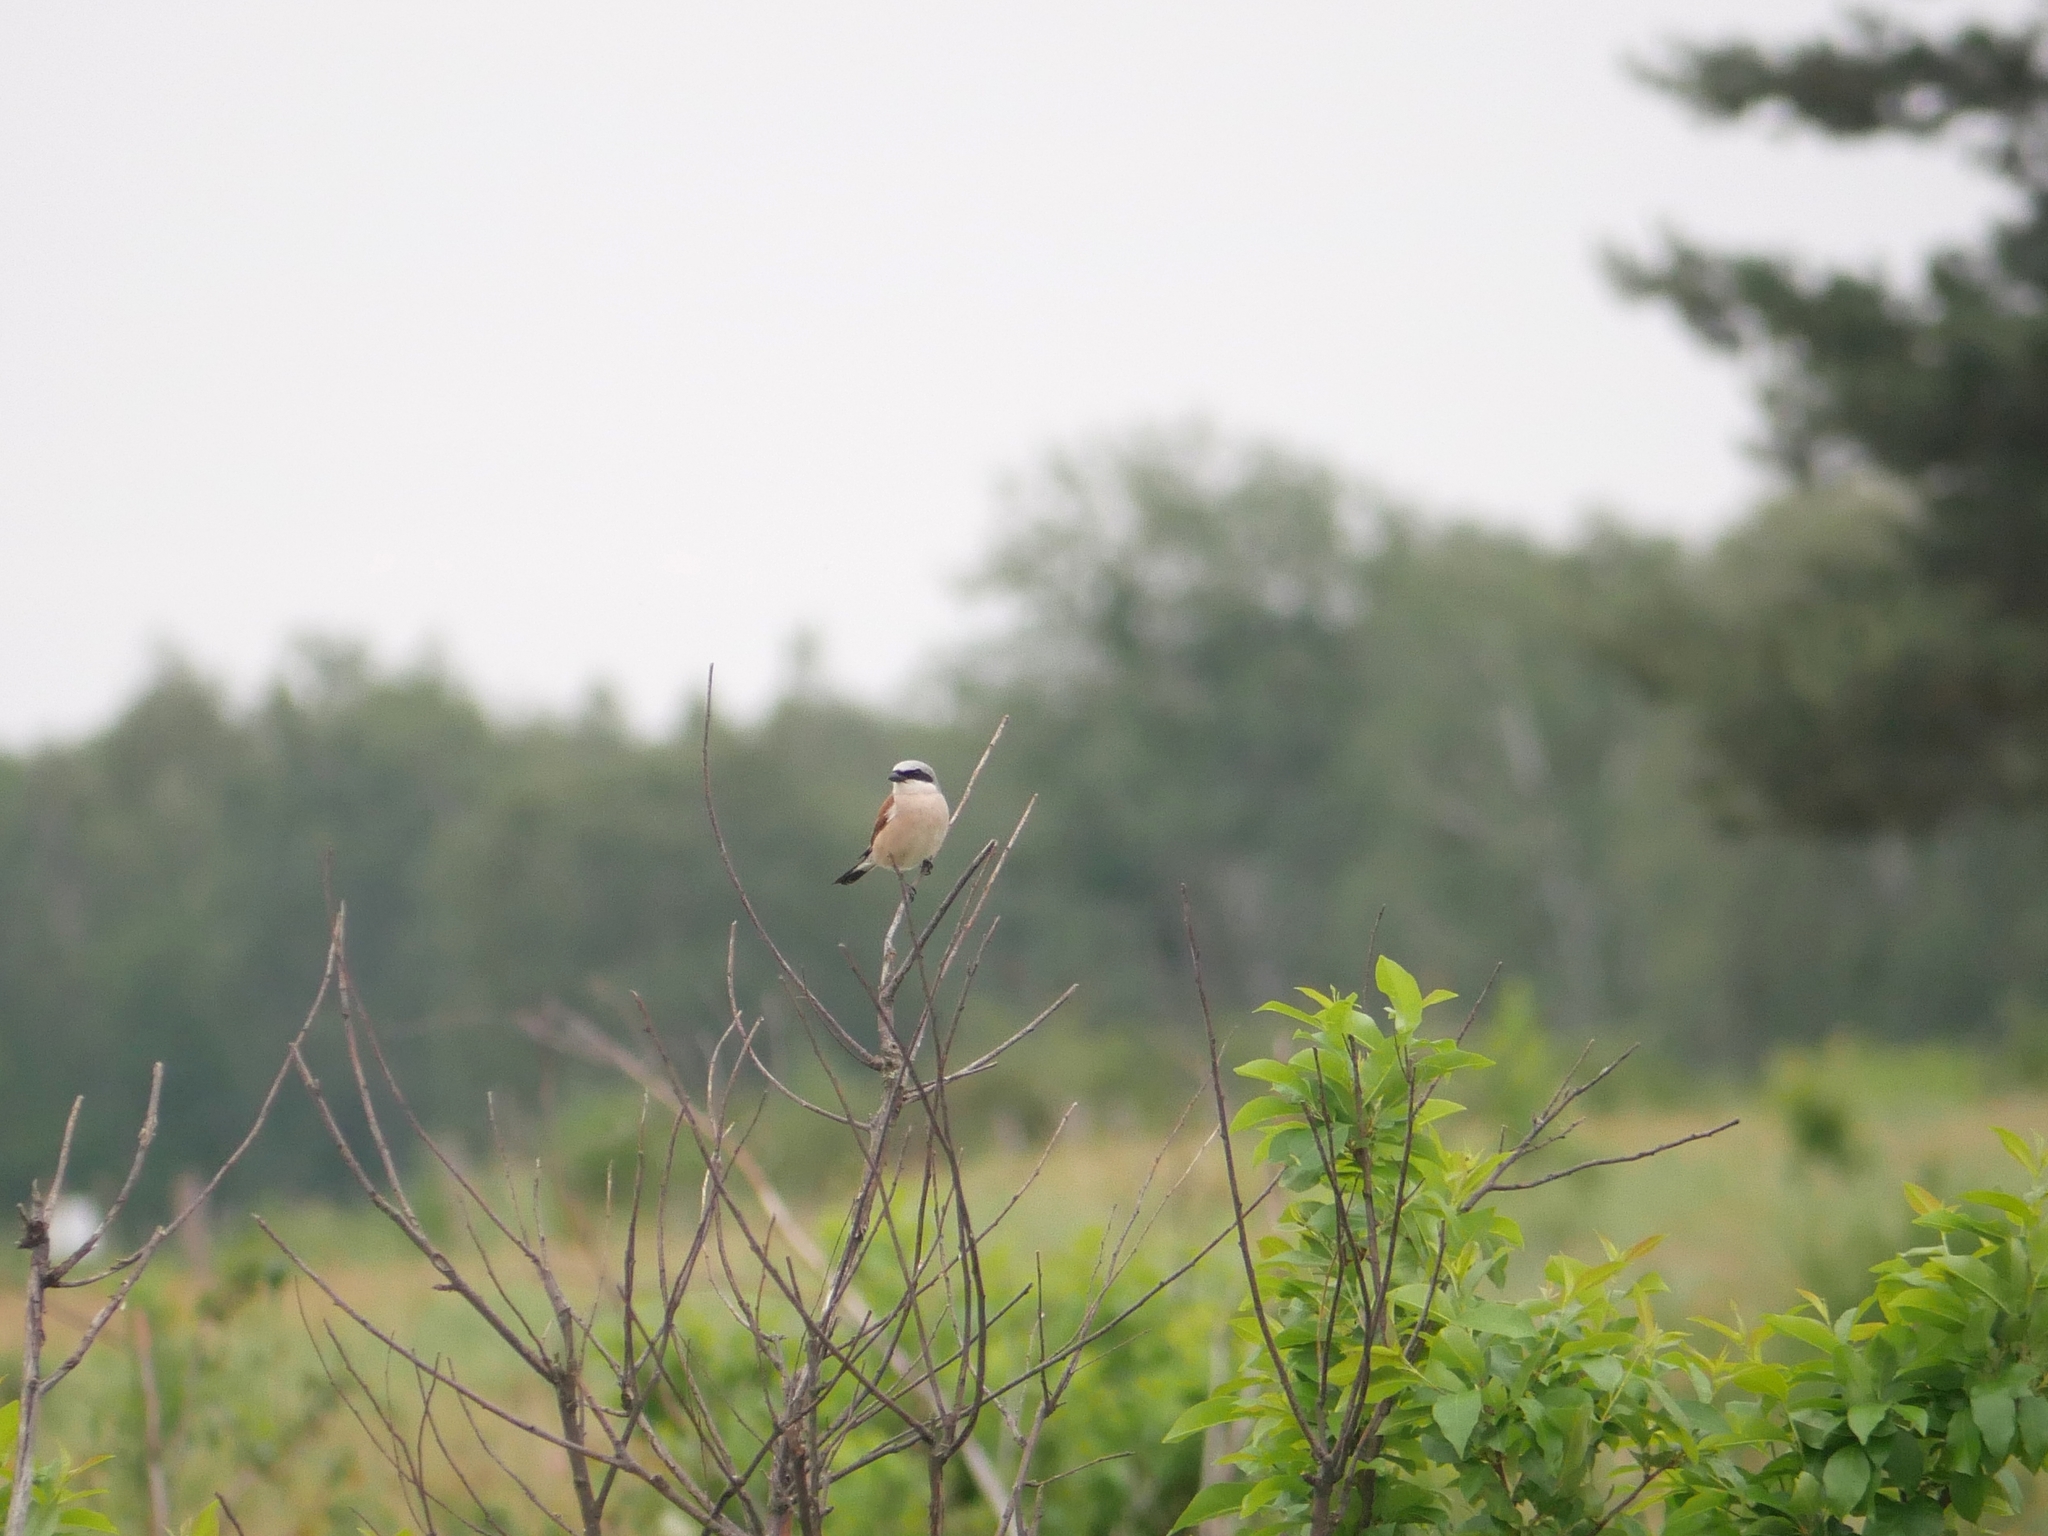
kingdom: Animalia
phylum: Chordata
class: Aves
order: Passeriformes
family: Laniidae
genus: Lanius
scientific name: Lanius collurio
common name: Red-backed shrike
